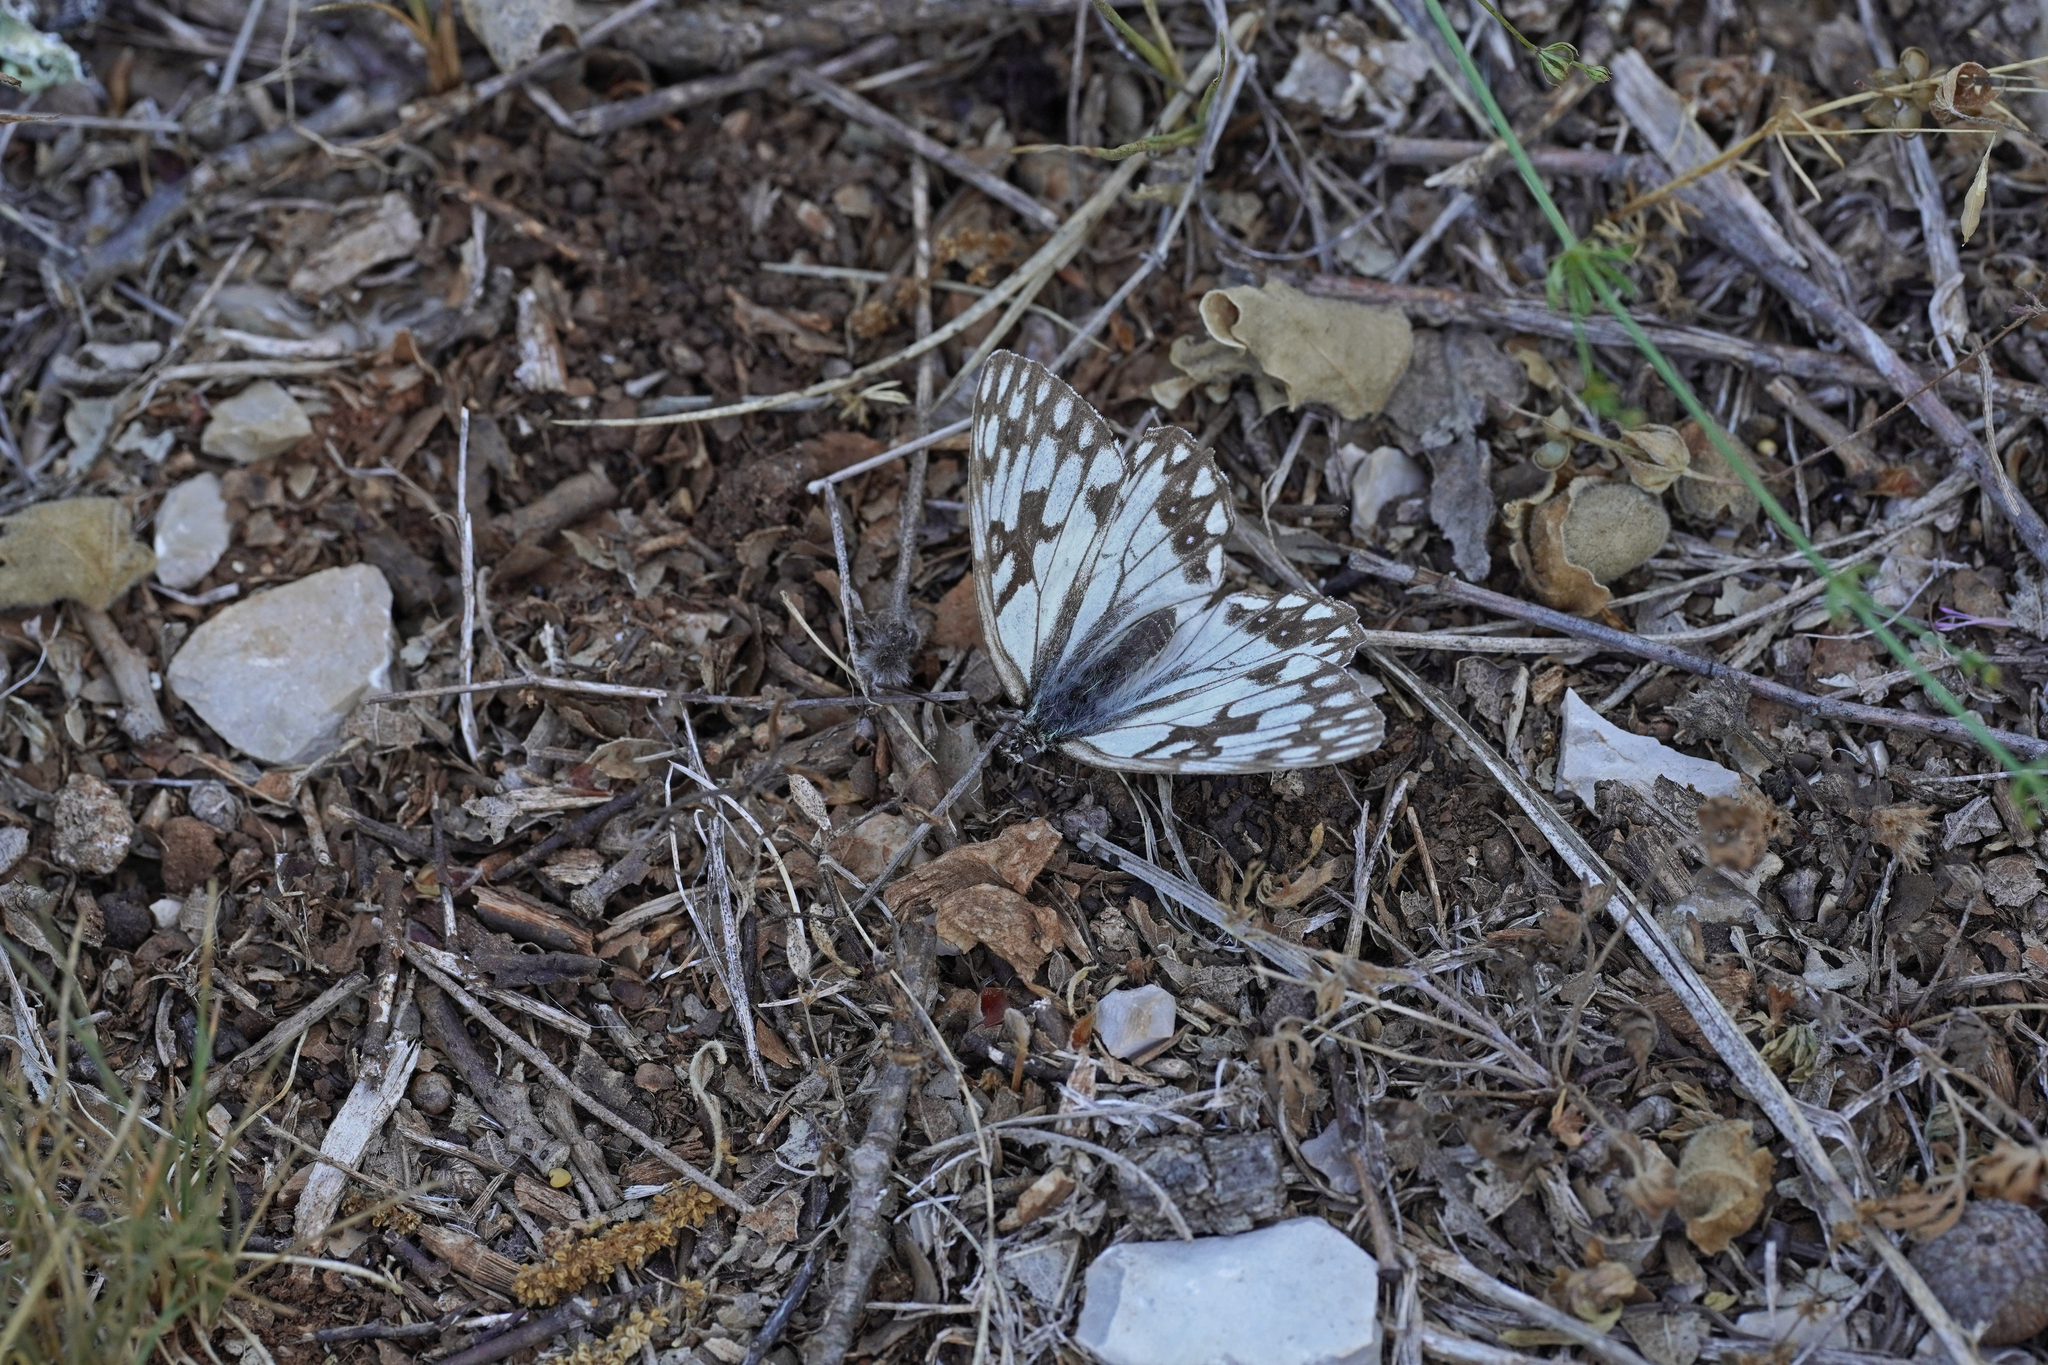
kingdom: Animalia
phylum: Arthropoda
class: Insecta
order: Lepidoptera
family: Nymphalidae
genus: Melanargia
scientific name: Melanargia occitanica
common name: Western marbled white
